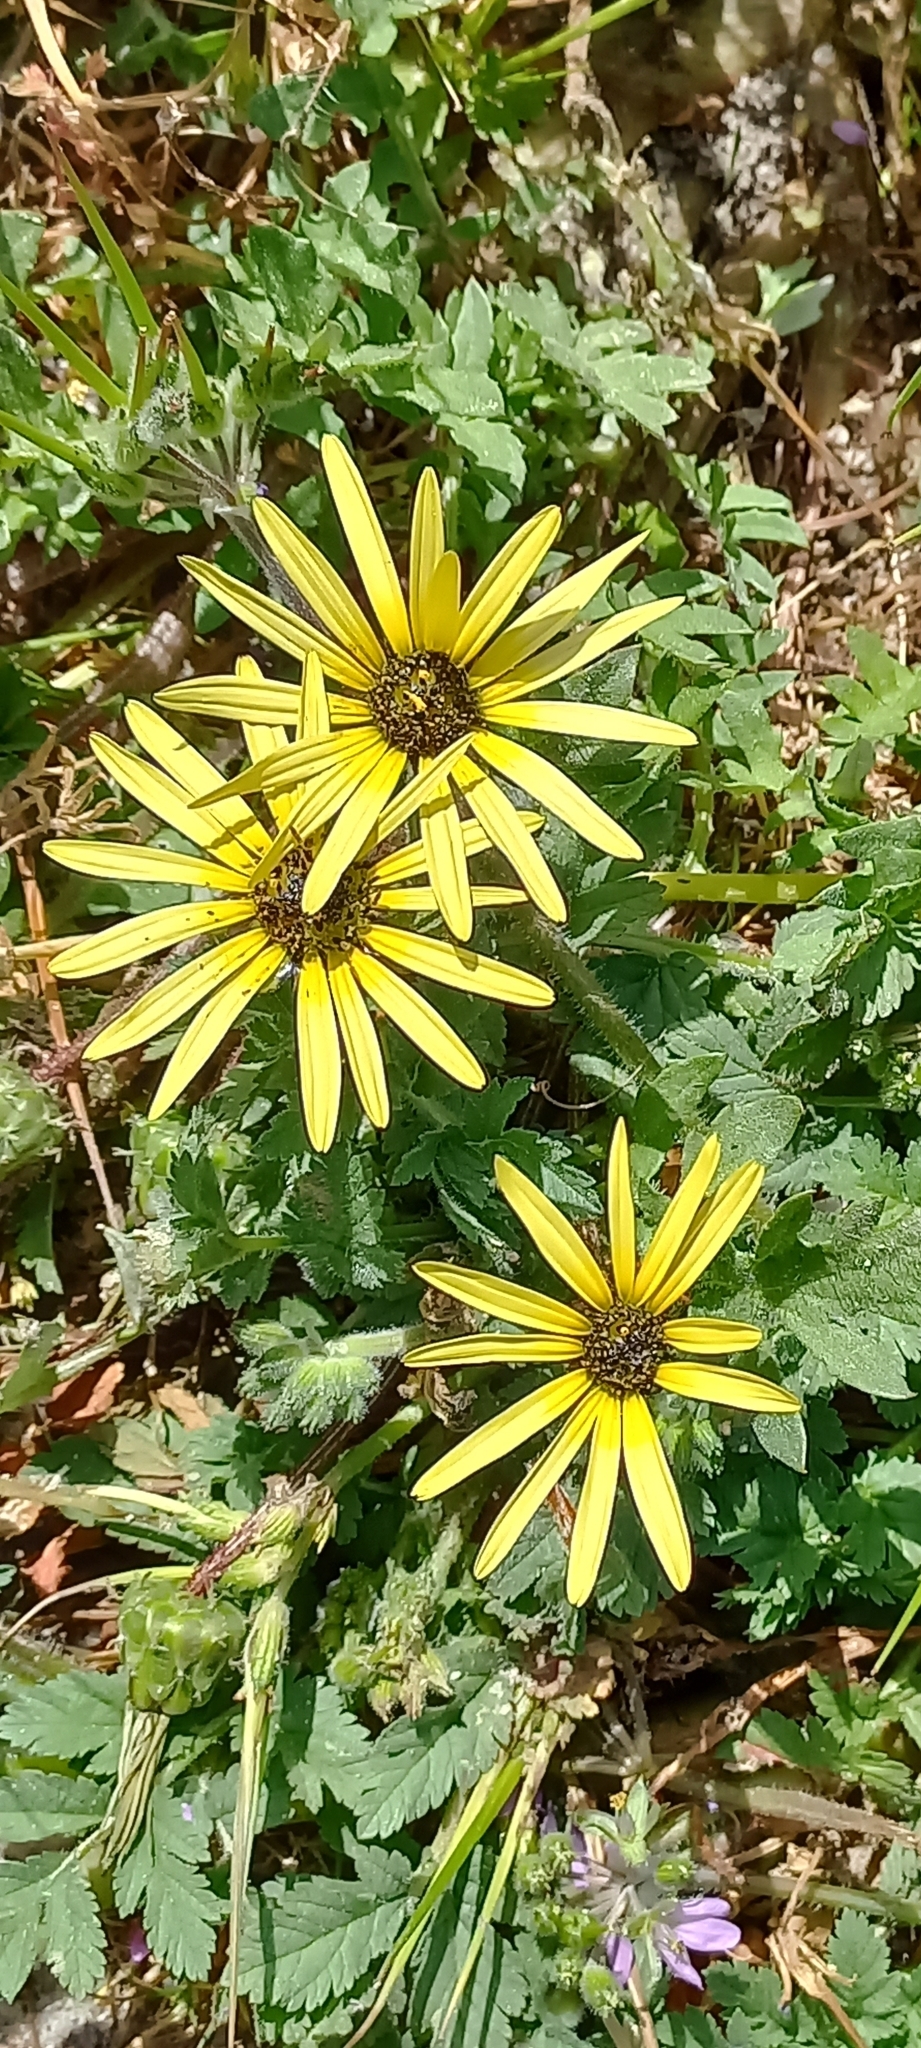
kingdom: Plantae
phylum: Tracheophyta
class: Magnoliopsida
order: Asterales
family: Asteraceae
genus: Arctotheca
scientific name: Arctotheca calendula
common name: Capeweed
